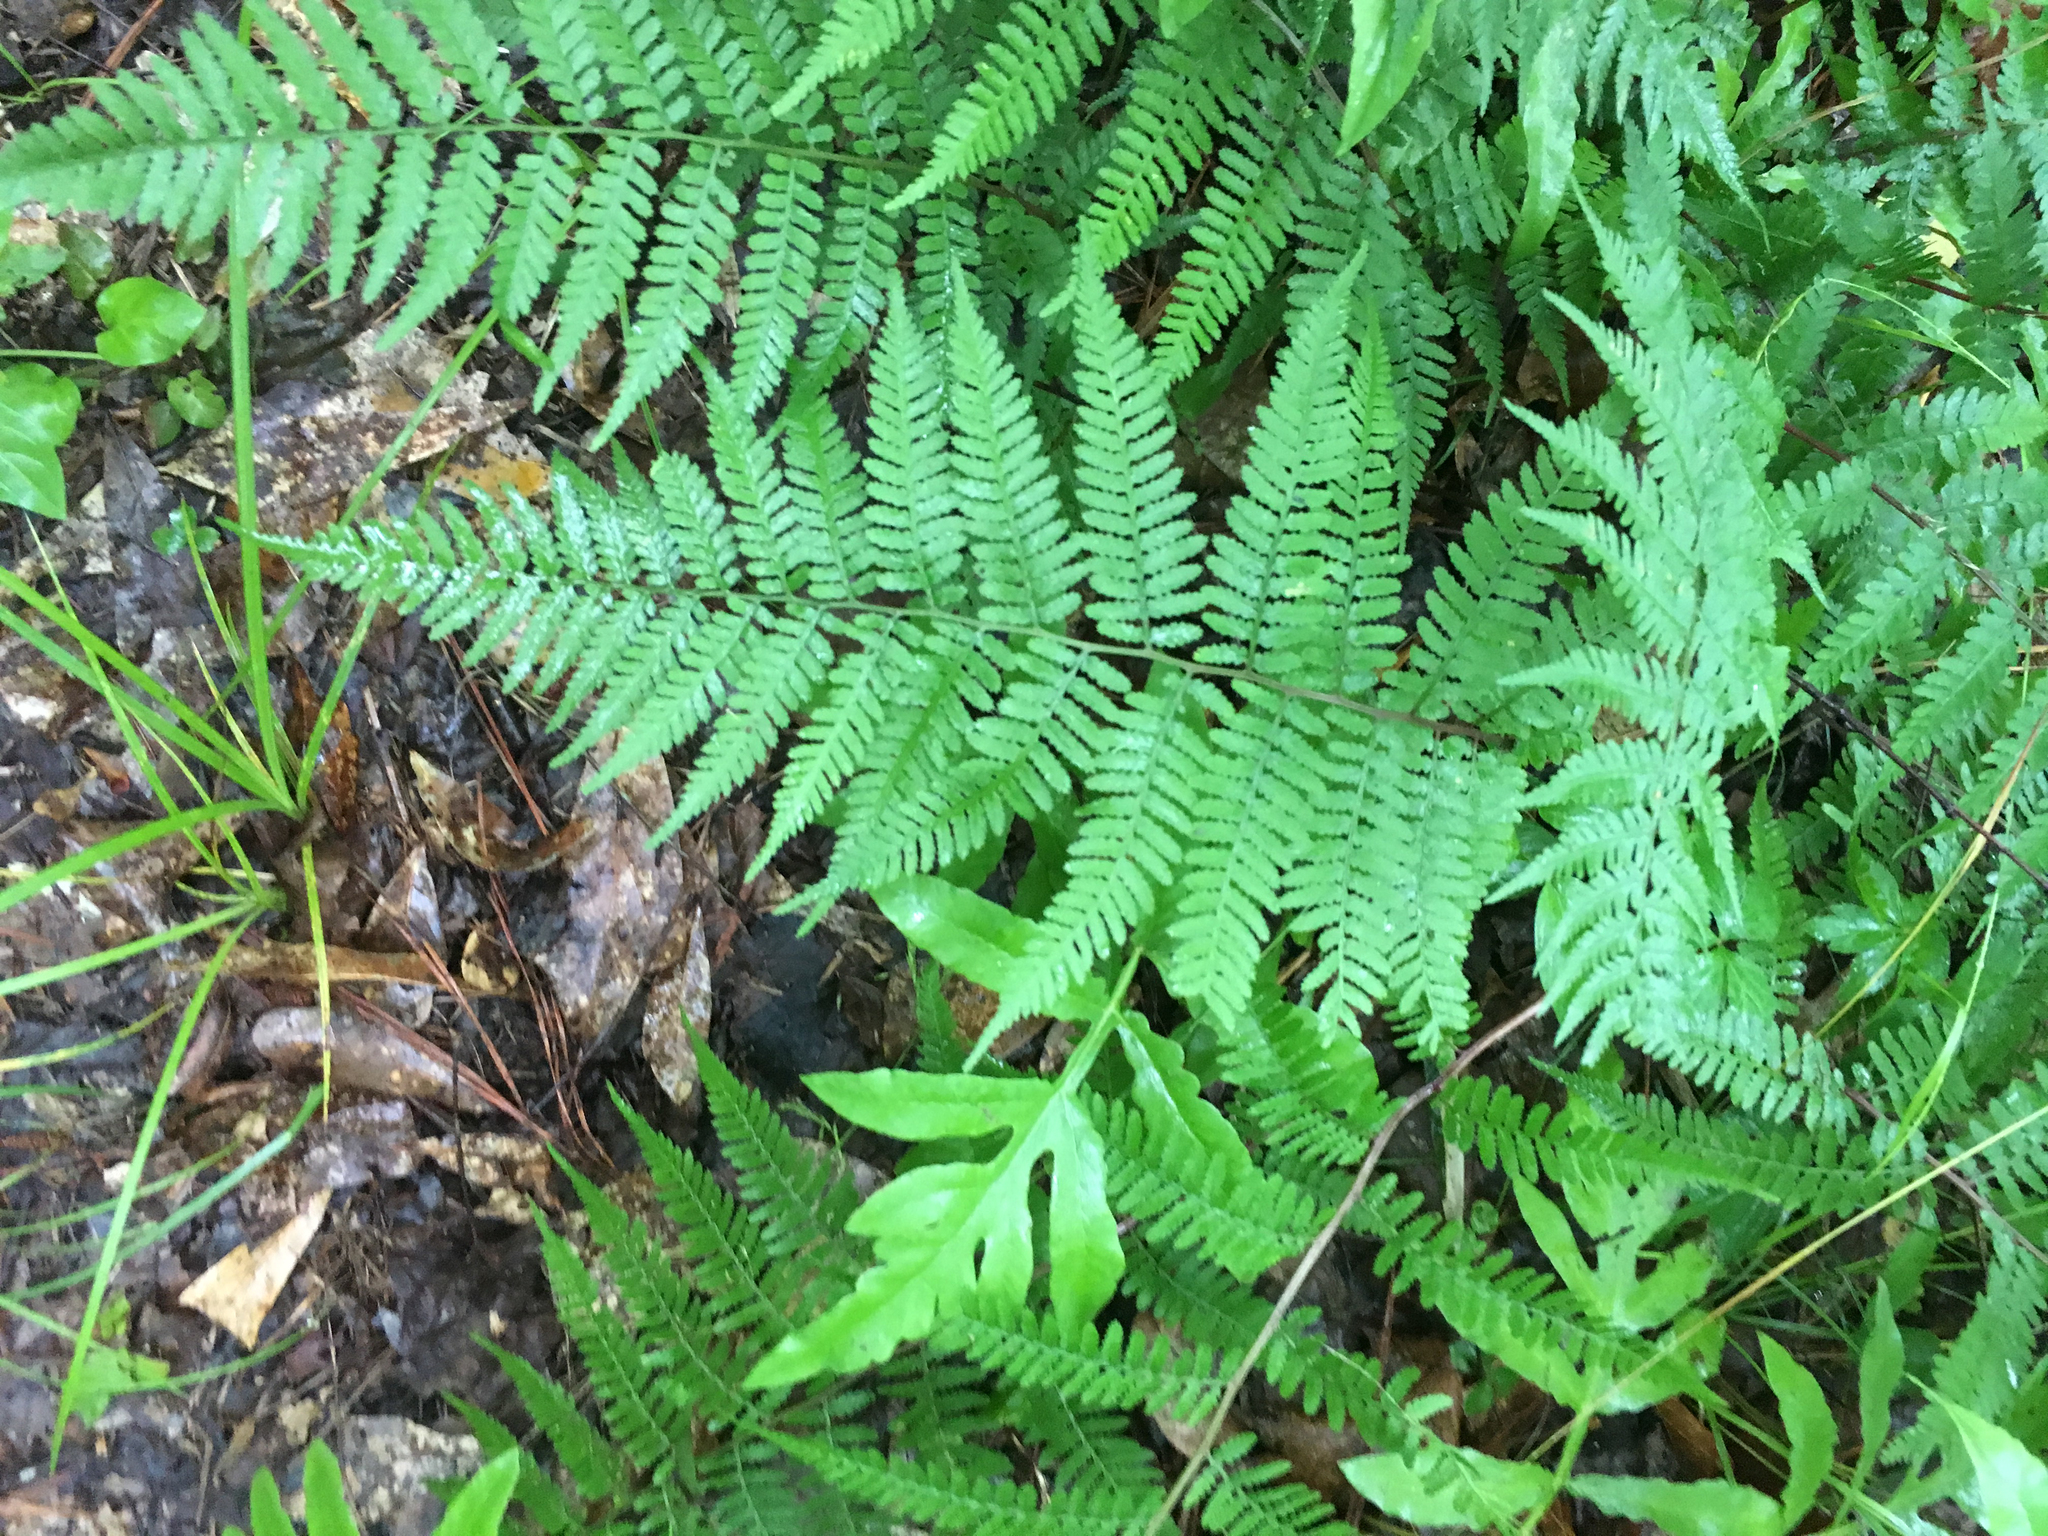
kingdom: Plantae
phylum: Tracheophyta
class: Polypodiopsida
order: Polypodiales
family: Athyriaceae
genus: Athyrium
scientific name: Athyrium asplenioides
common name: Southern lady fern
